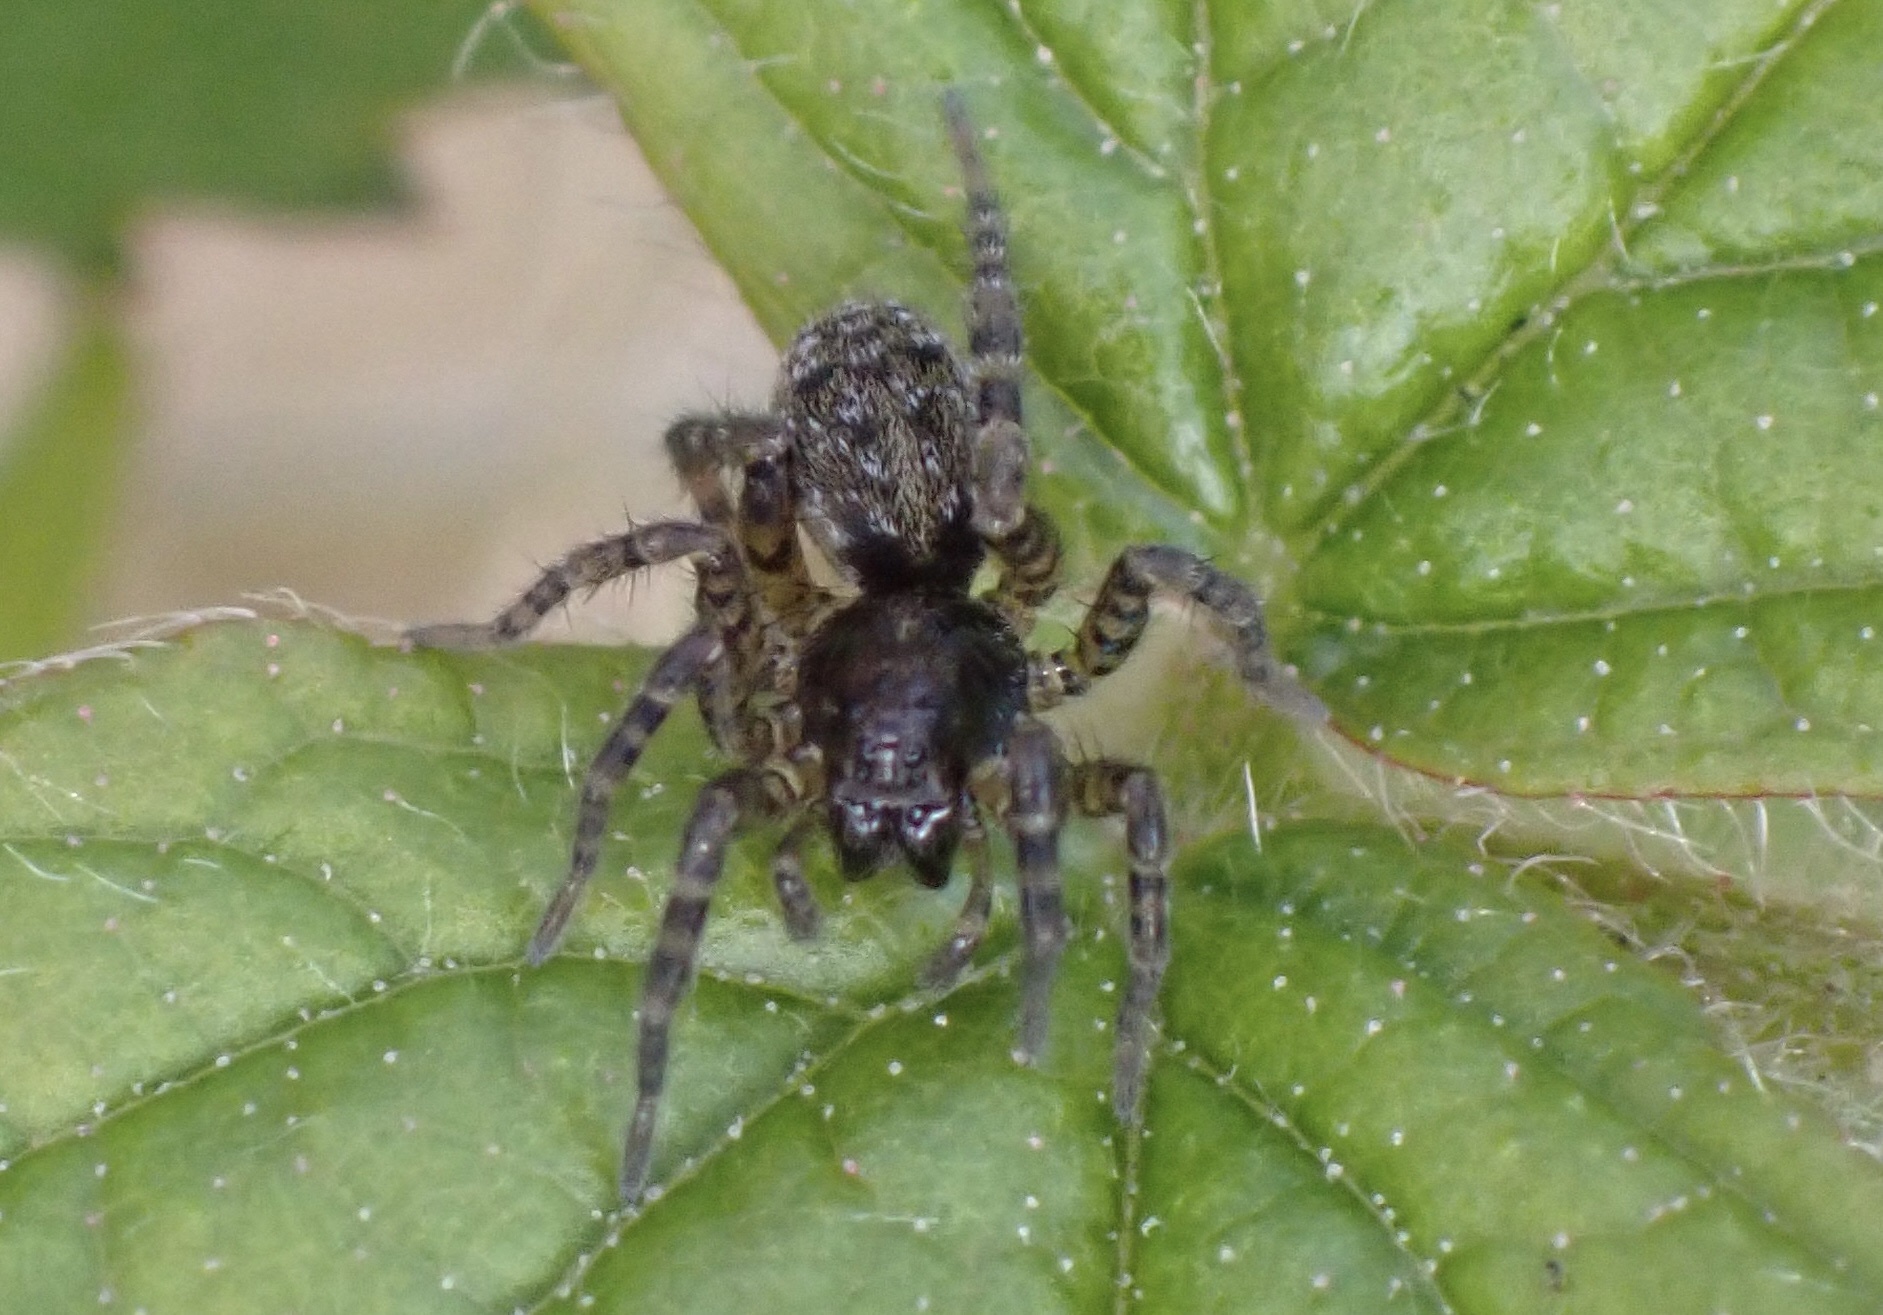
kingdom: Animalia
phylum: Arthropoda
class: Arachnida
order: Araneae
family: Lycosidae
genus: Arctosa
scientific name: Arctosa leopardus
